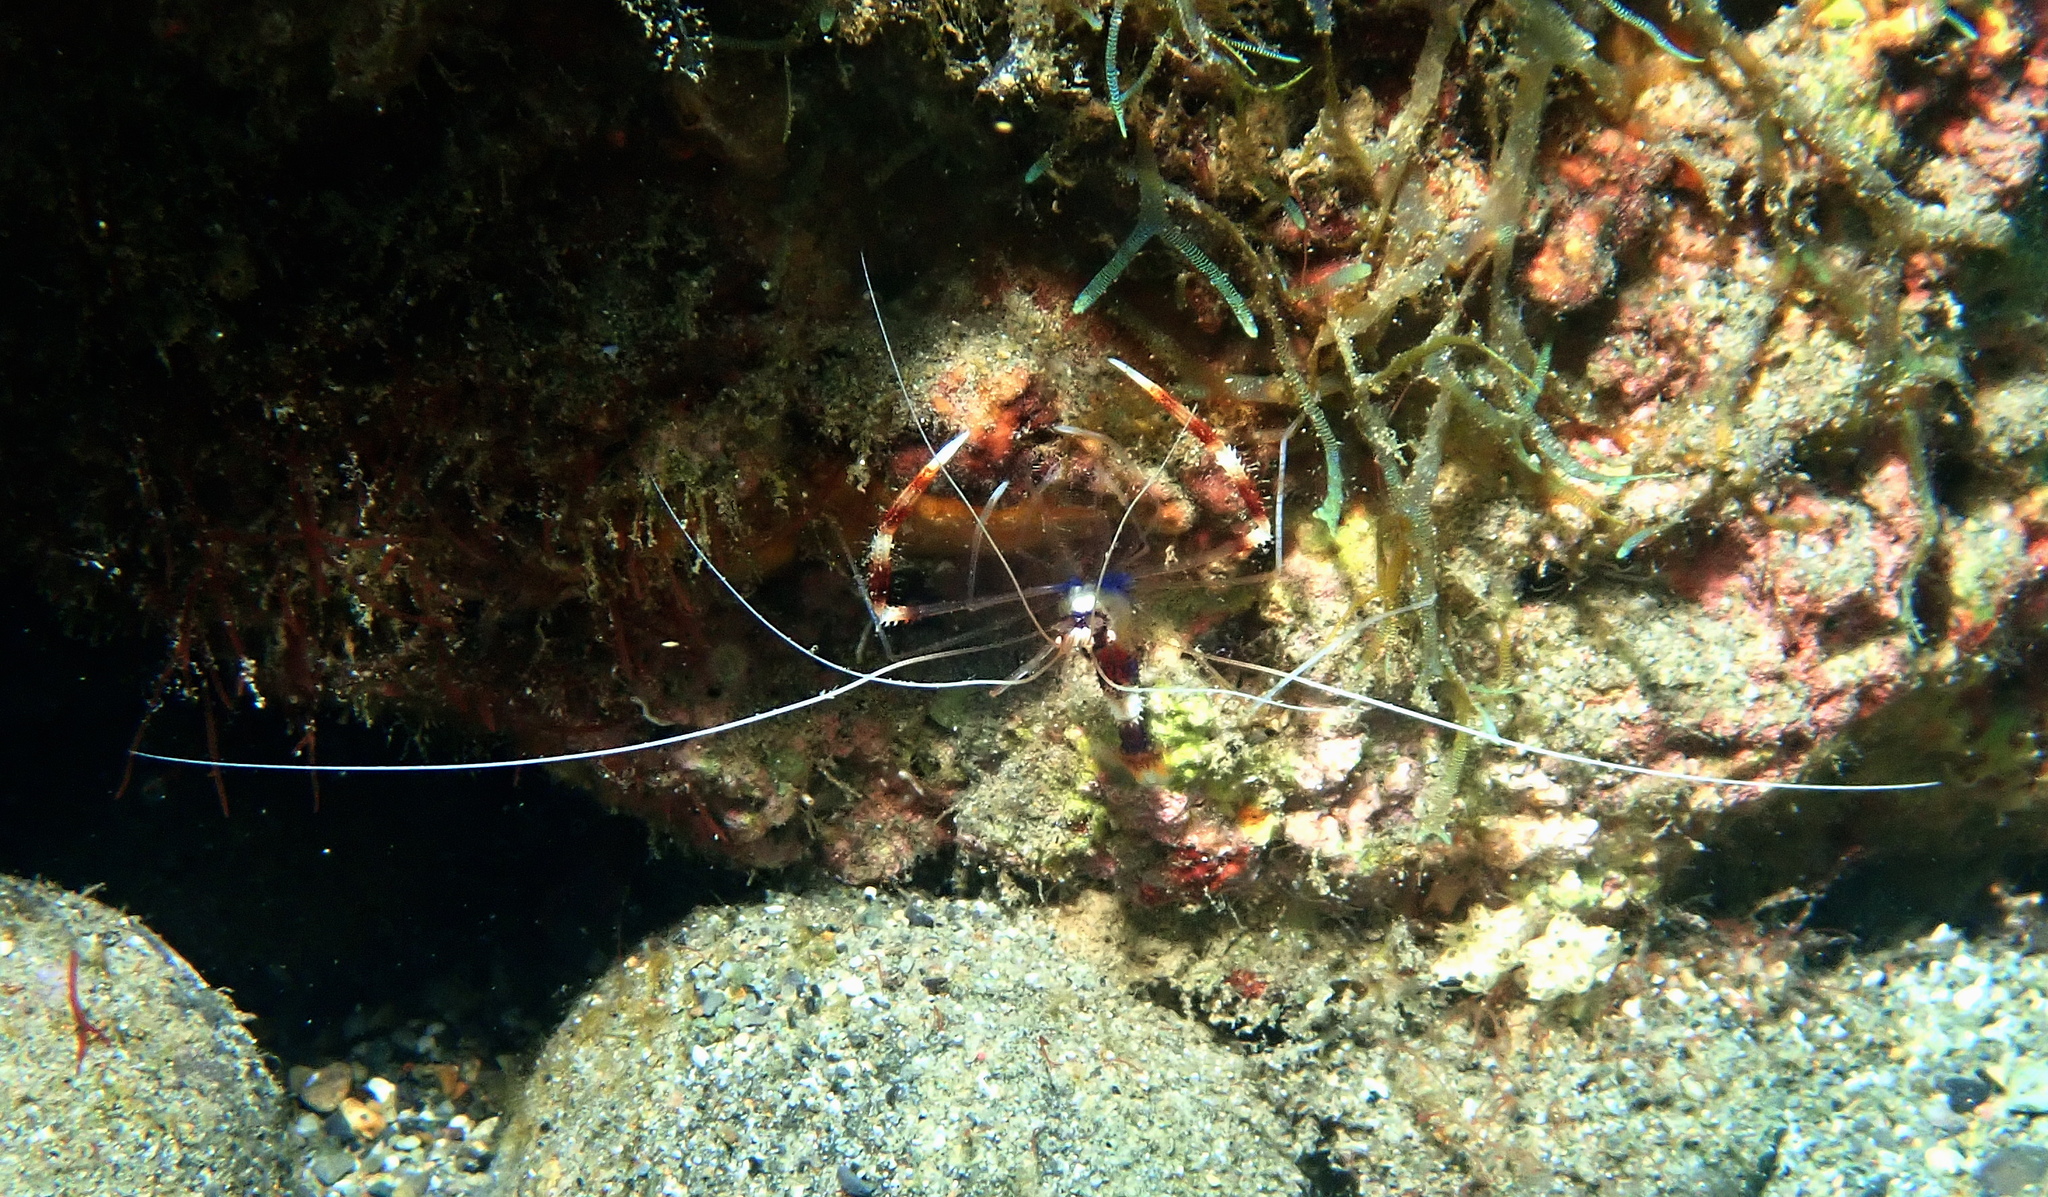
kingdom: Animalia
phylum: Arthropoda
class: Malacostraca
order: Decapoda
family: Stenopodidae
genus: Stenopus
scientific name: Stenopus hispidus
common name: Banded coral shrimp
